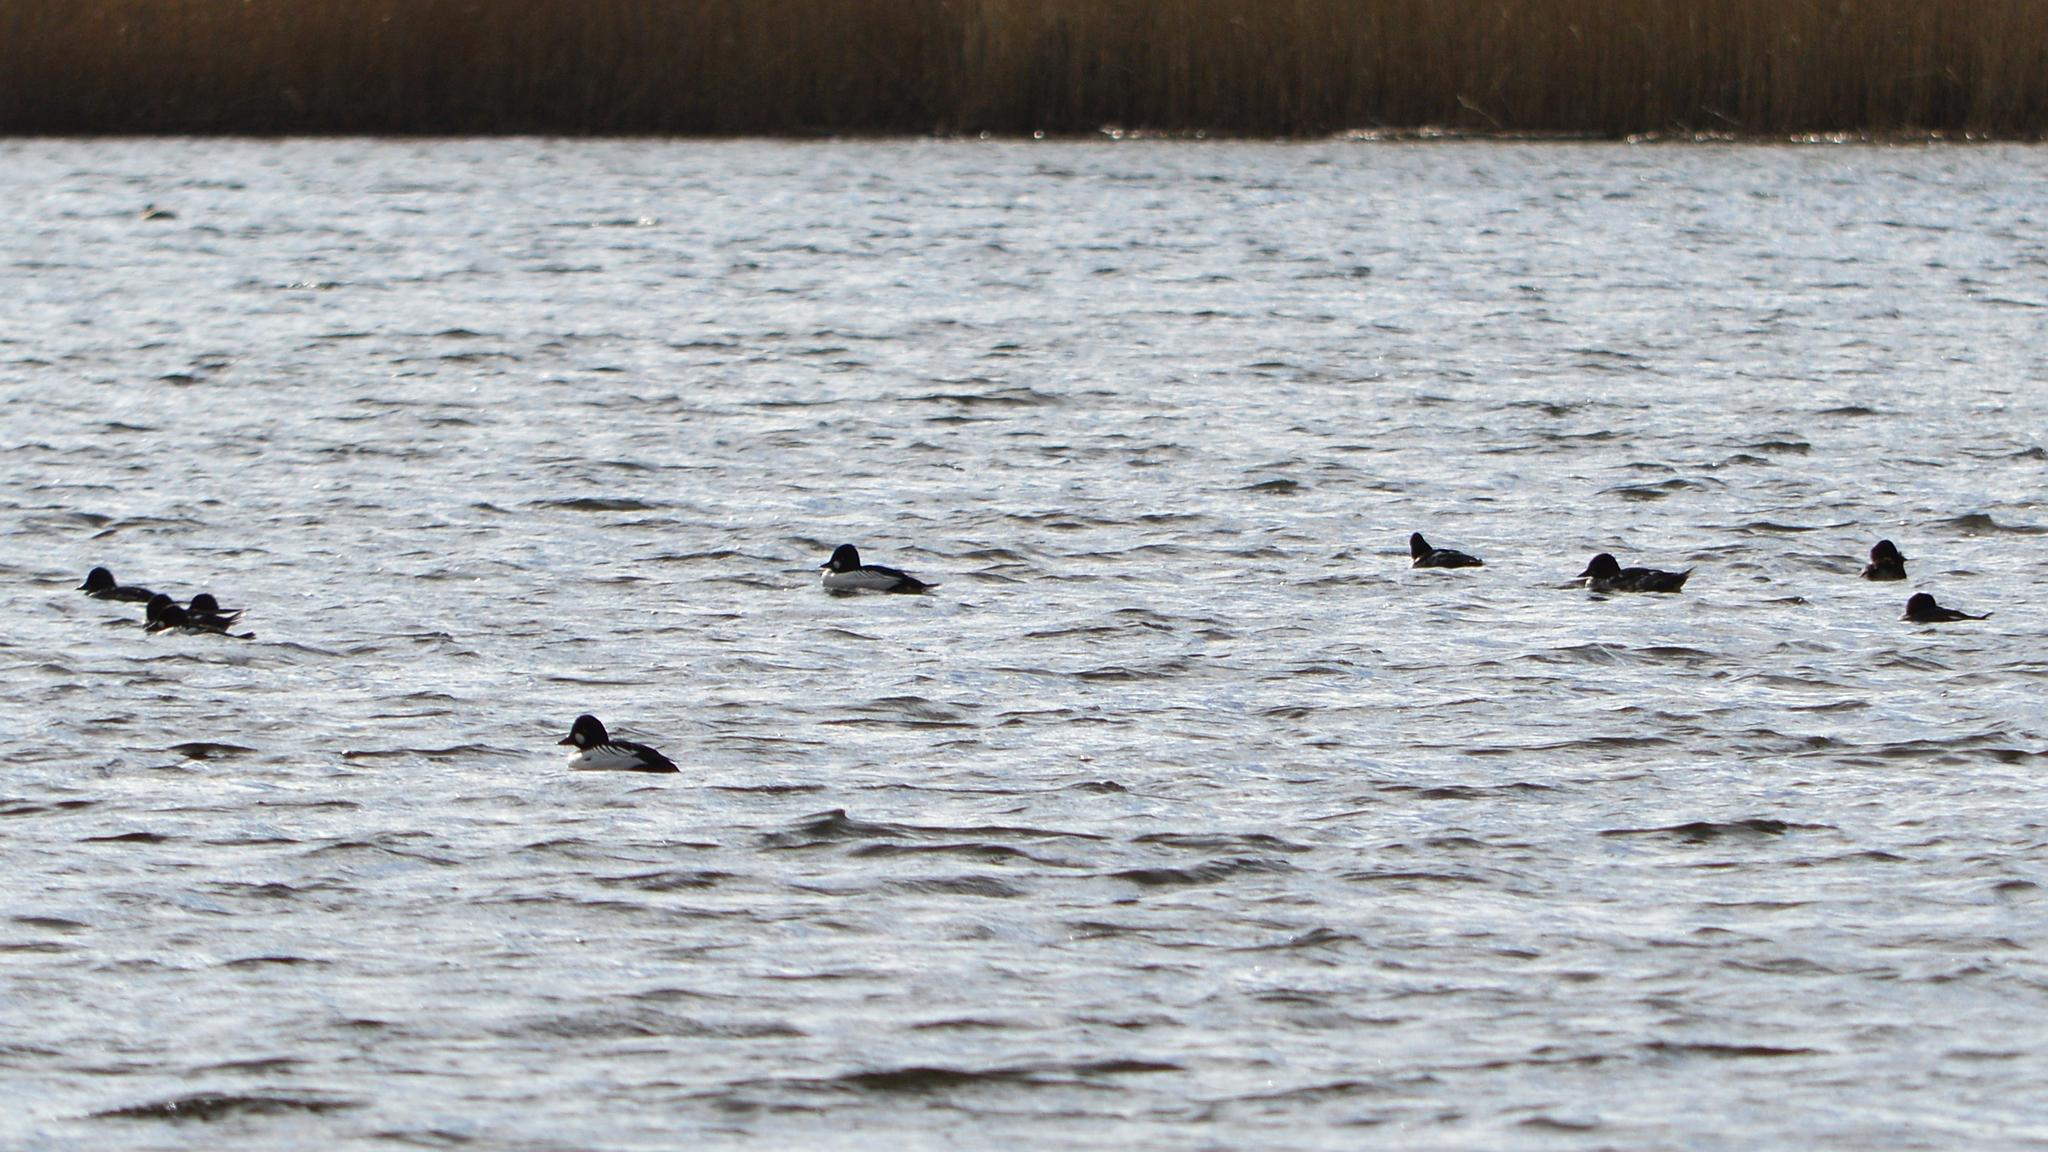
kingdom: Animalia
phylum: Chordata
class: Aves
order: Anseriformes
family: Anatidae
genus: Bucephala
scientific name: Bucephala clangula
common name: Common goldeneye
